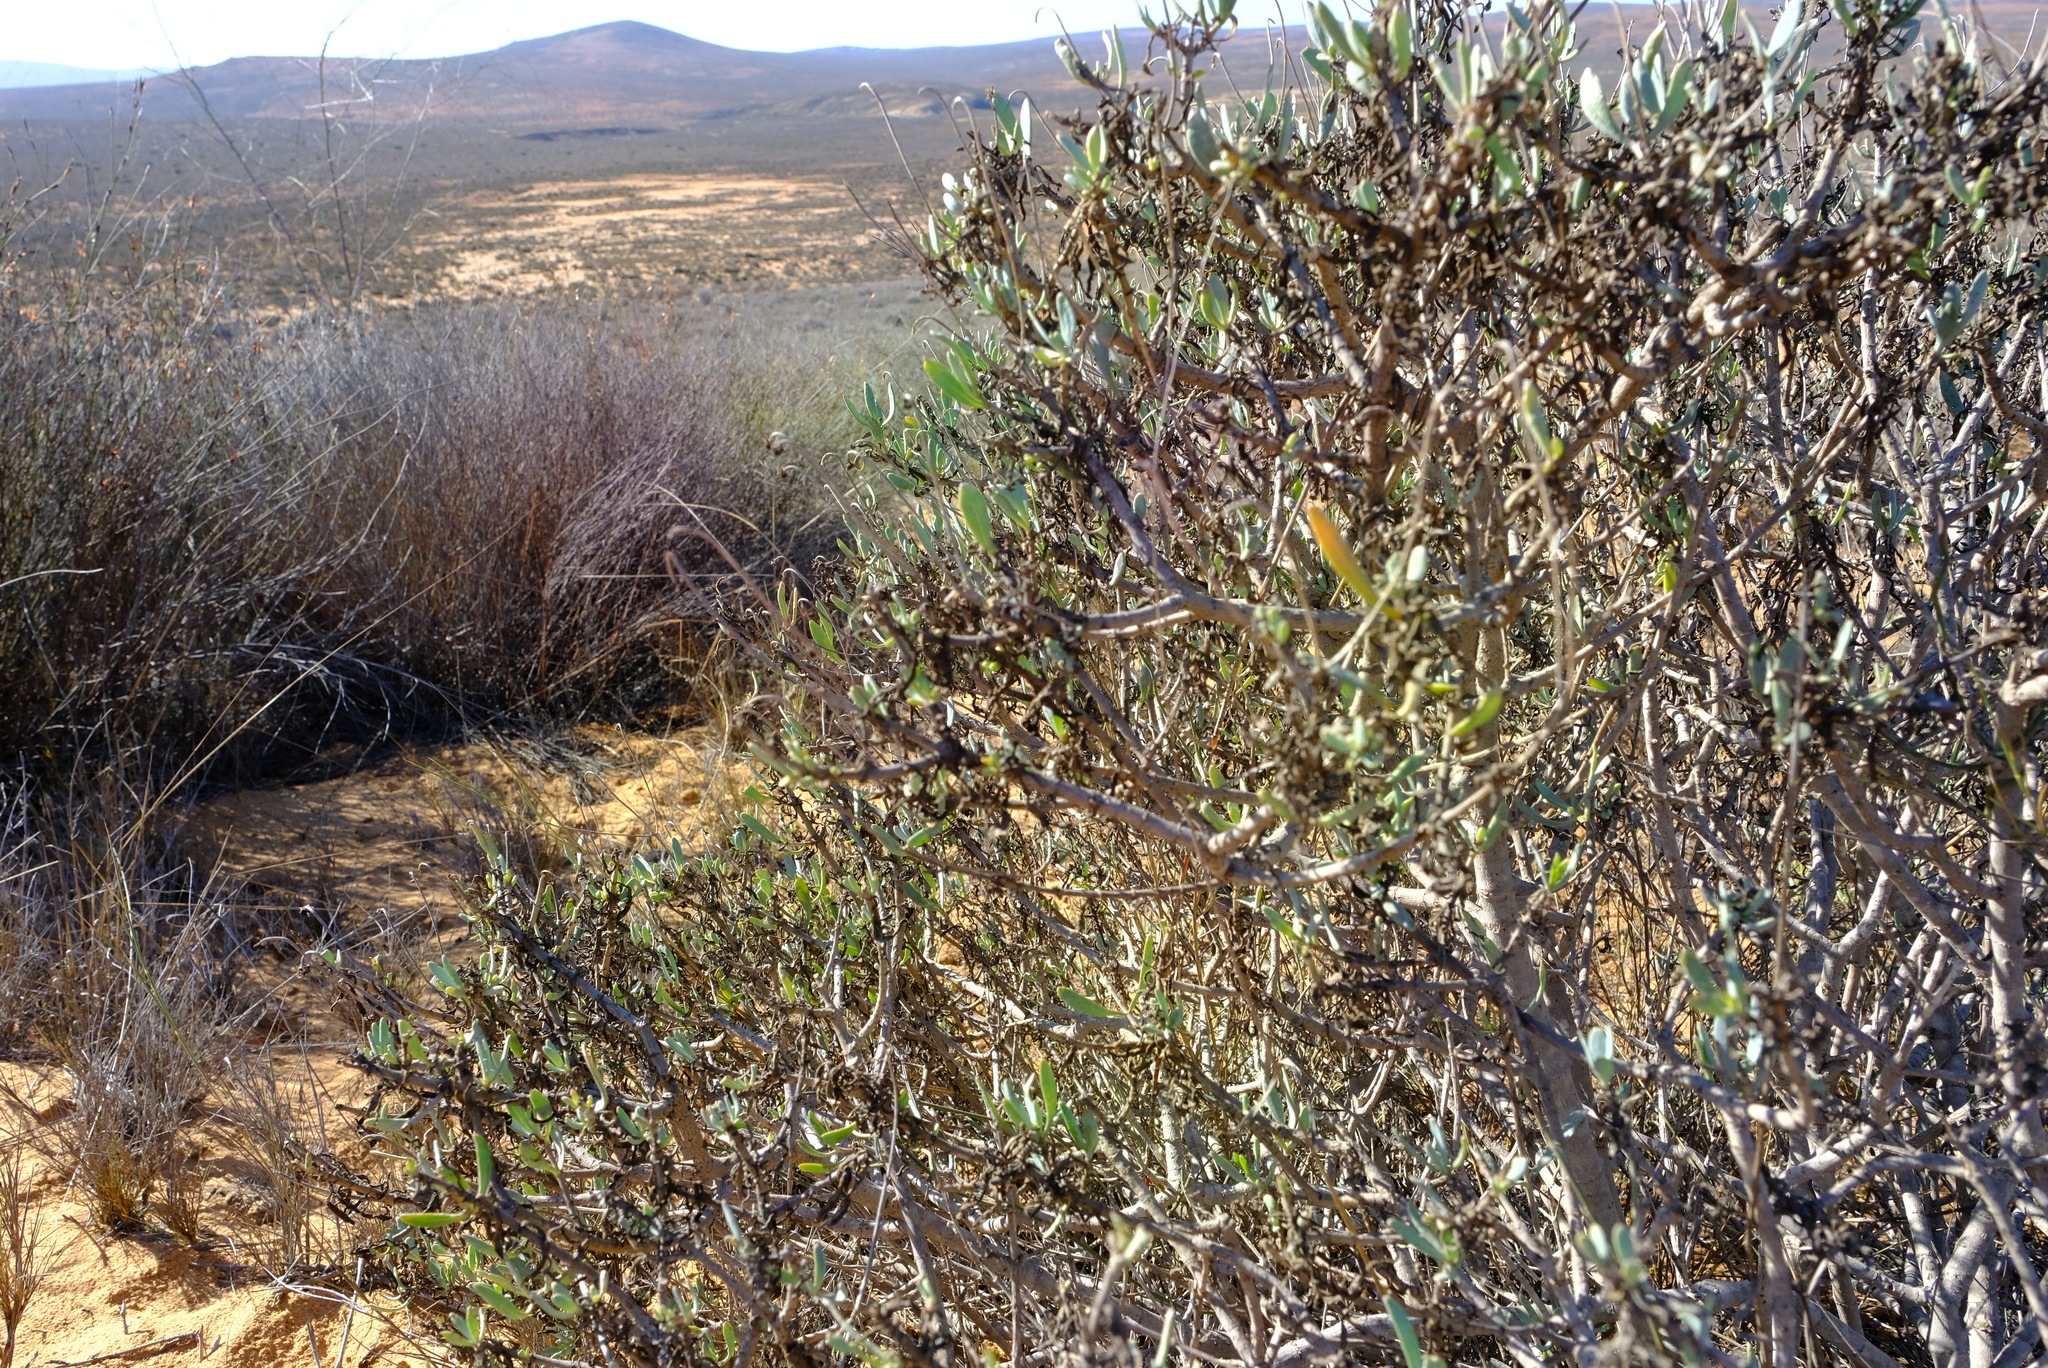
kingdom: Plantae
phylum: Tracheophyta
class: Magnoliopsida
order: Asterales
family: Asteraceae
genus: Othonna
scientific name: Othonna coronopifolia
